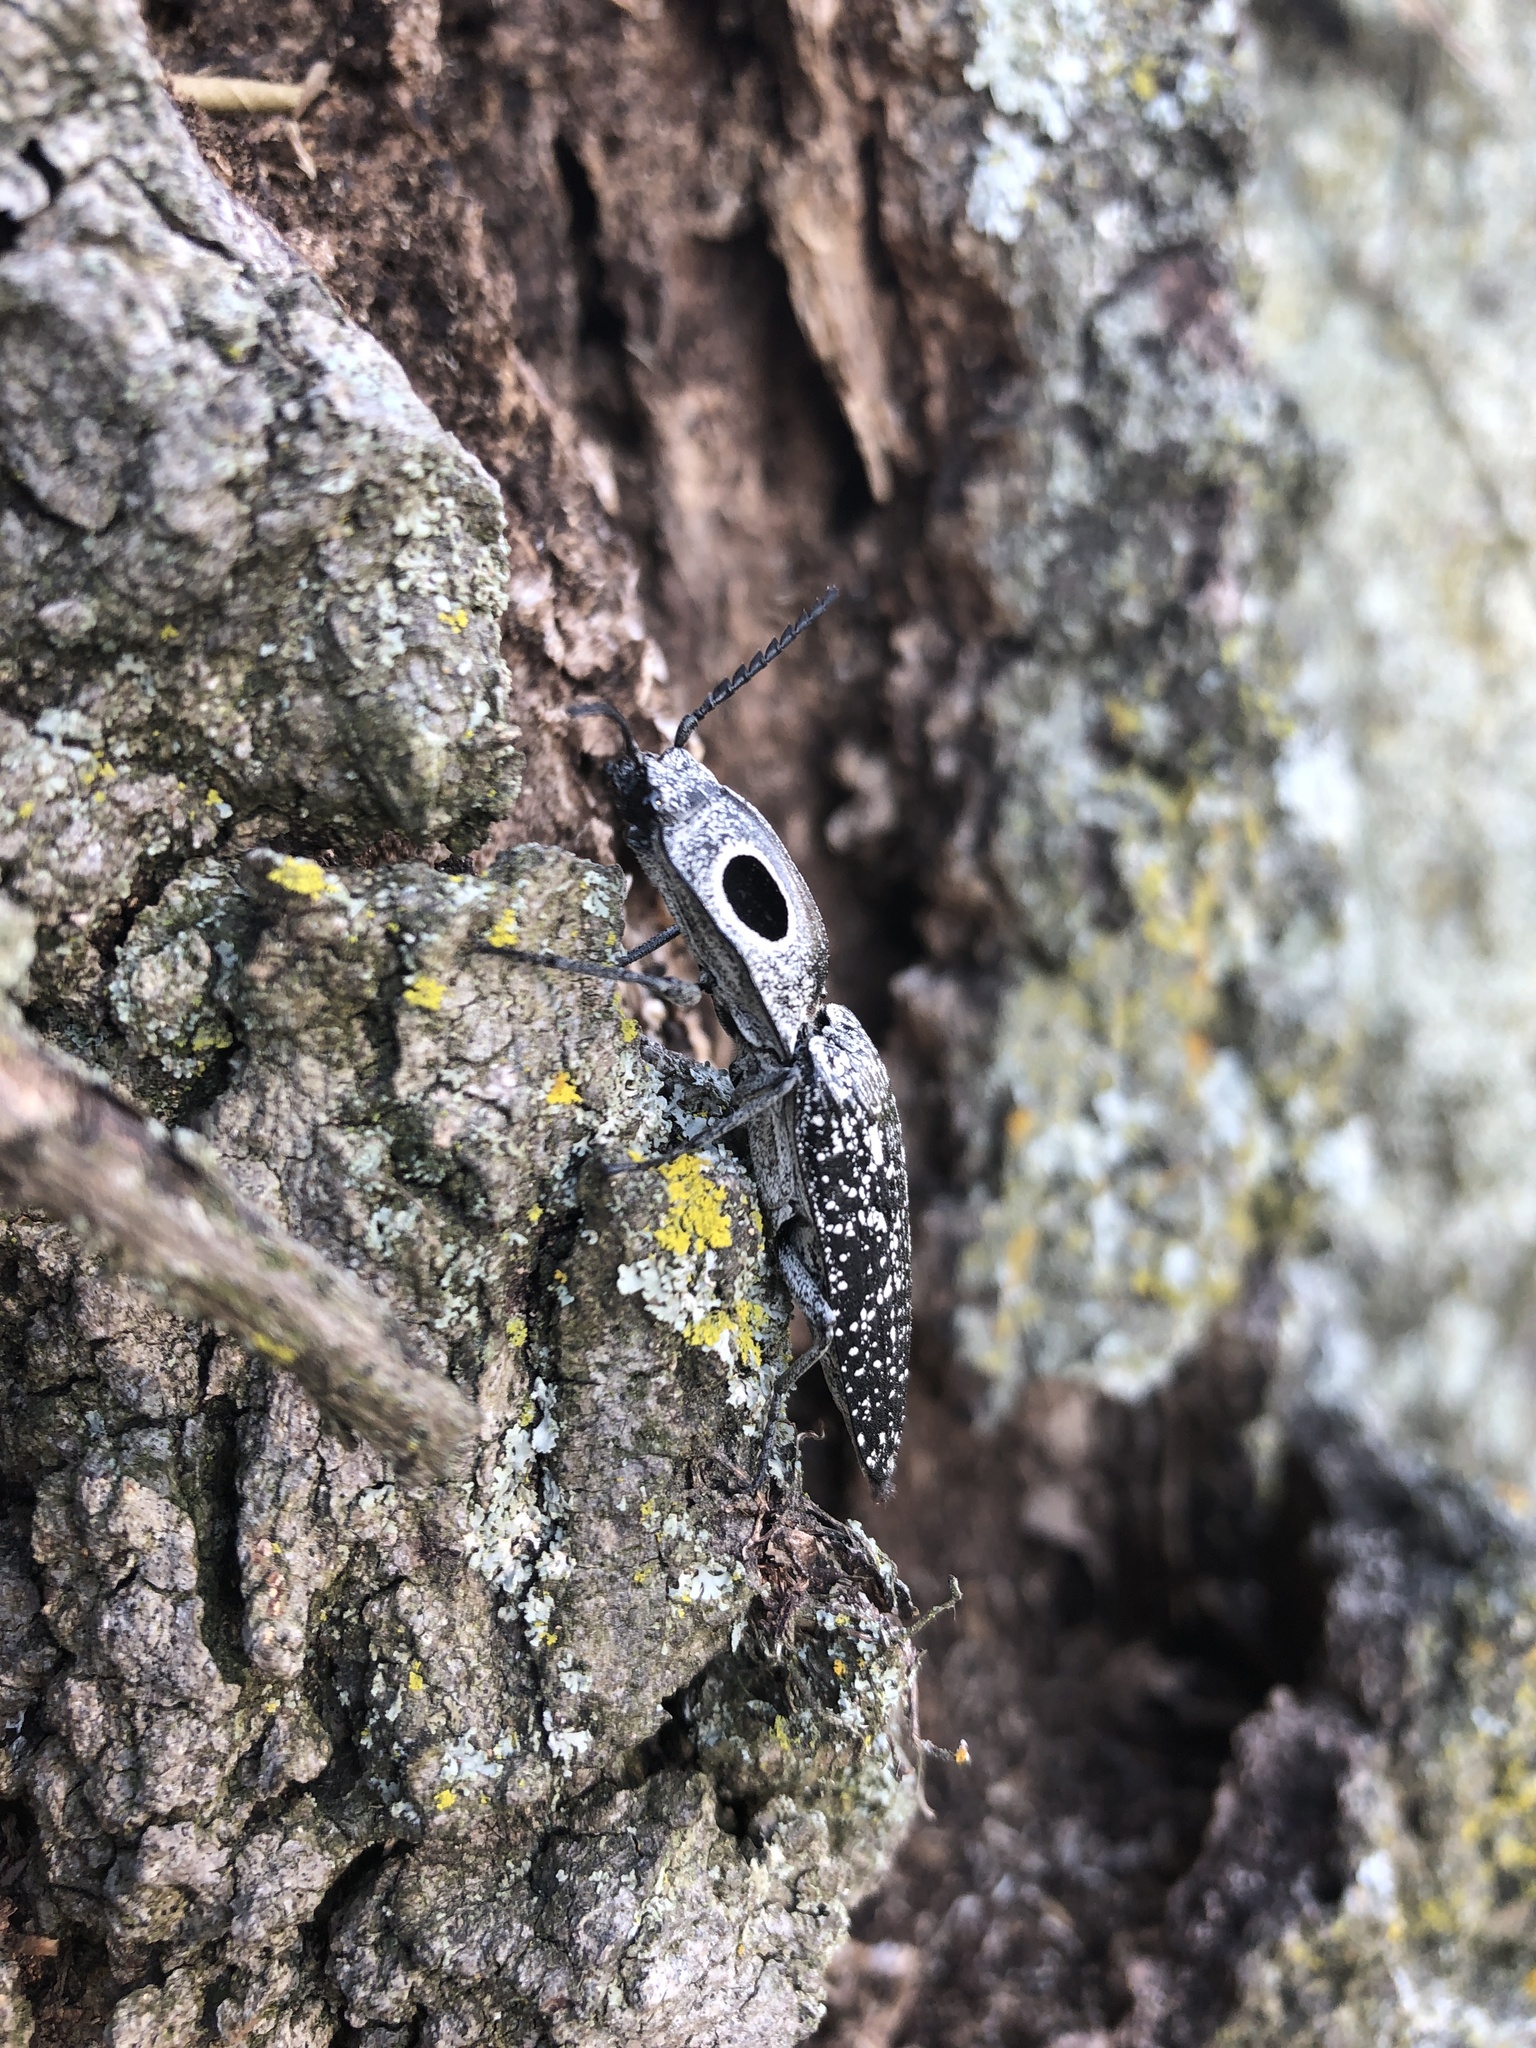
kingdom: Animalia
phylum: Arthropoda
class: Insecta
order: Coleoptera
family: Elateridae
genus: Alaus
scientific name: Alaus oculatus
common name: Eastern eyed click beetle
